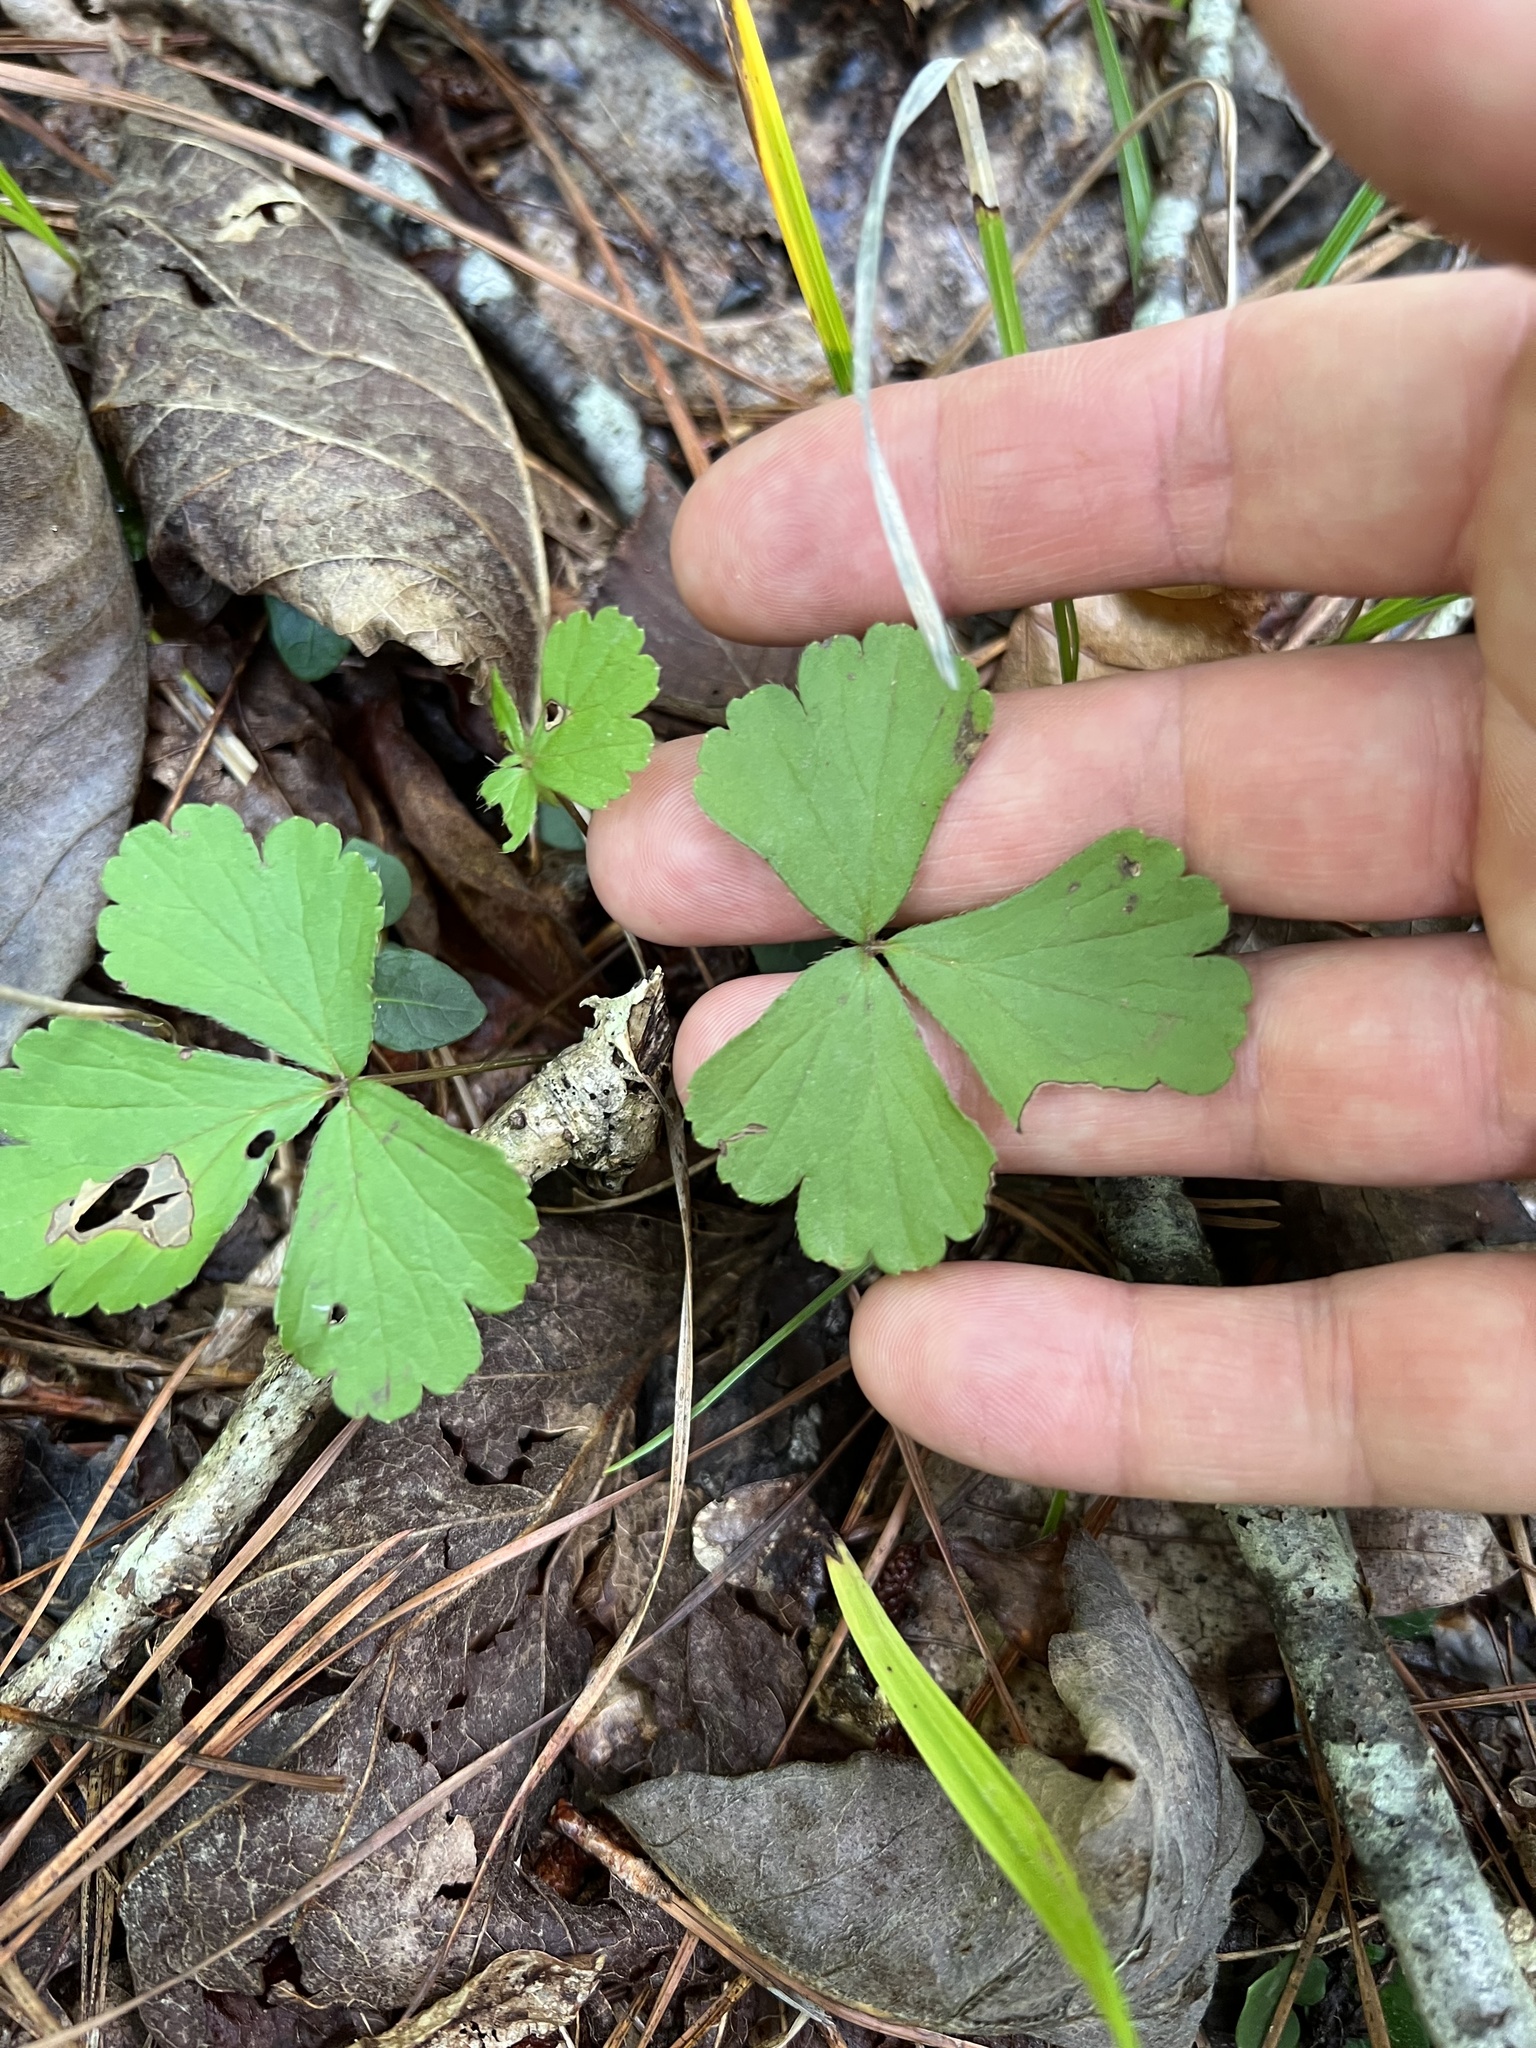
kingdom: Plantae
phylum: Tracheophyta
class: Magnoliopsida
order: Rosales
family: Rosaceae
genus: Geum
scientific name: Geum fragarioides
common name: Appalachian barren strawberry
